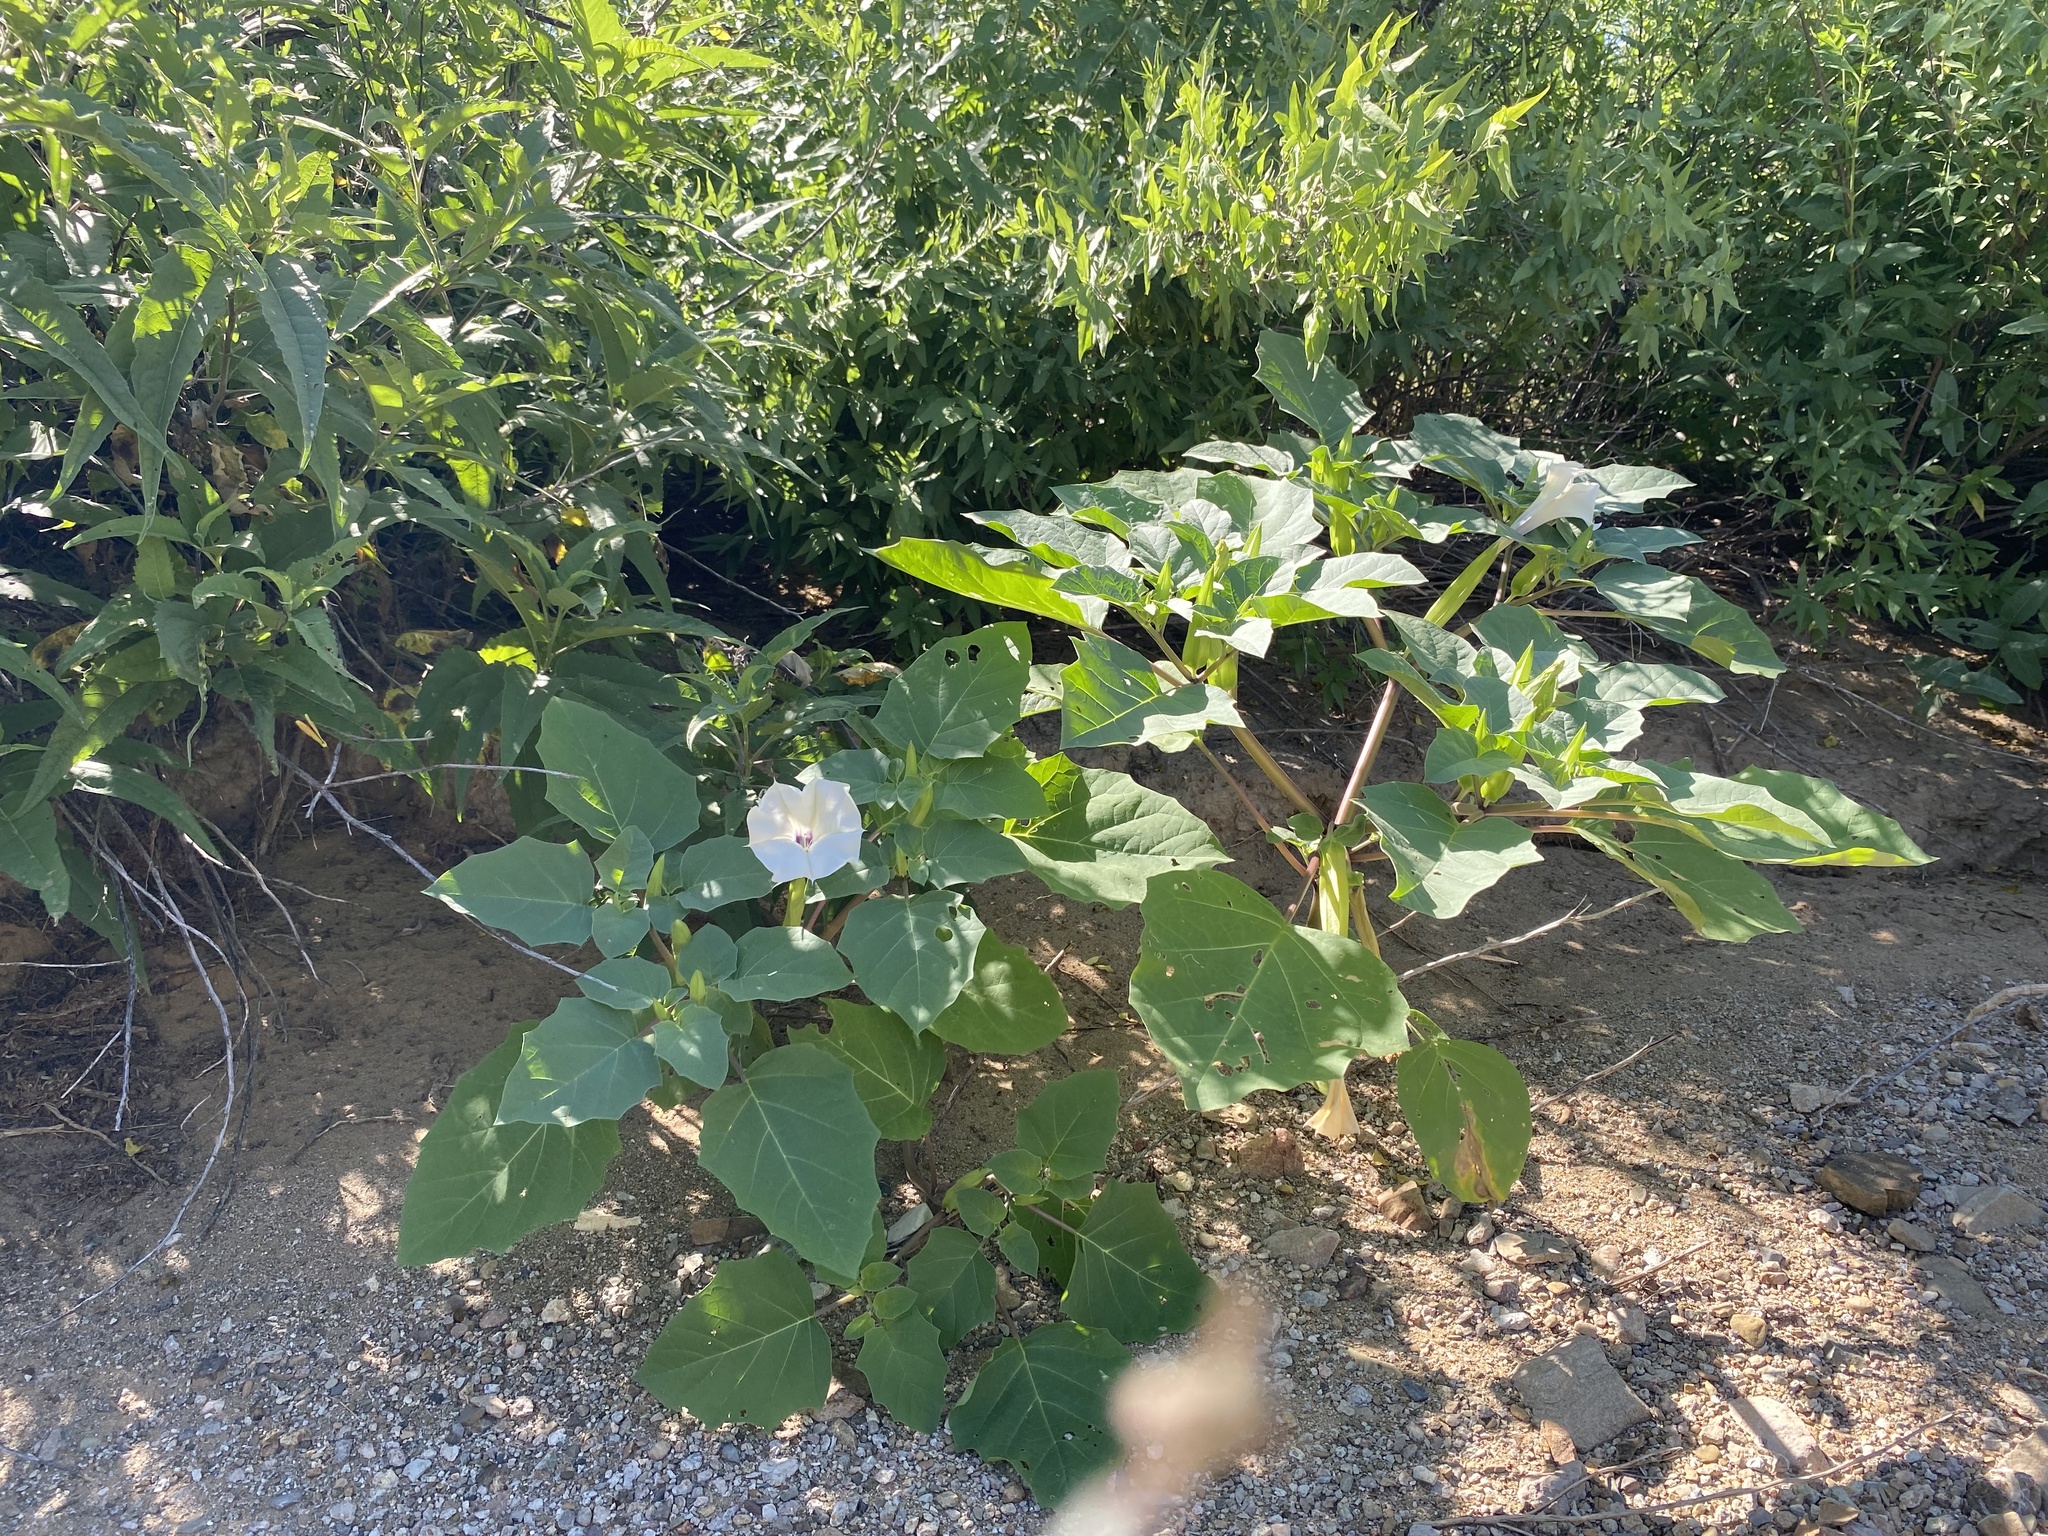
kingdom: Plantae
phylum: Tracheophyta
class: Magnoliopsida
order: Solanales
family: Solanaceae
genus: Datura
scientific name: Datura discolor
